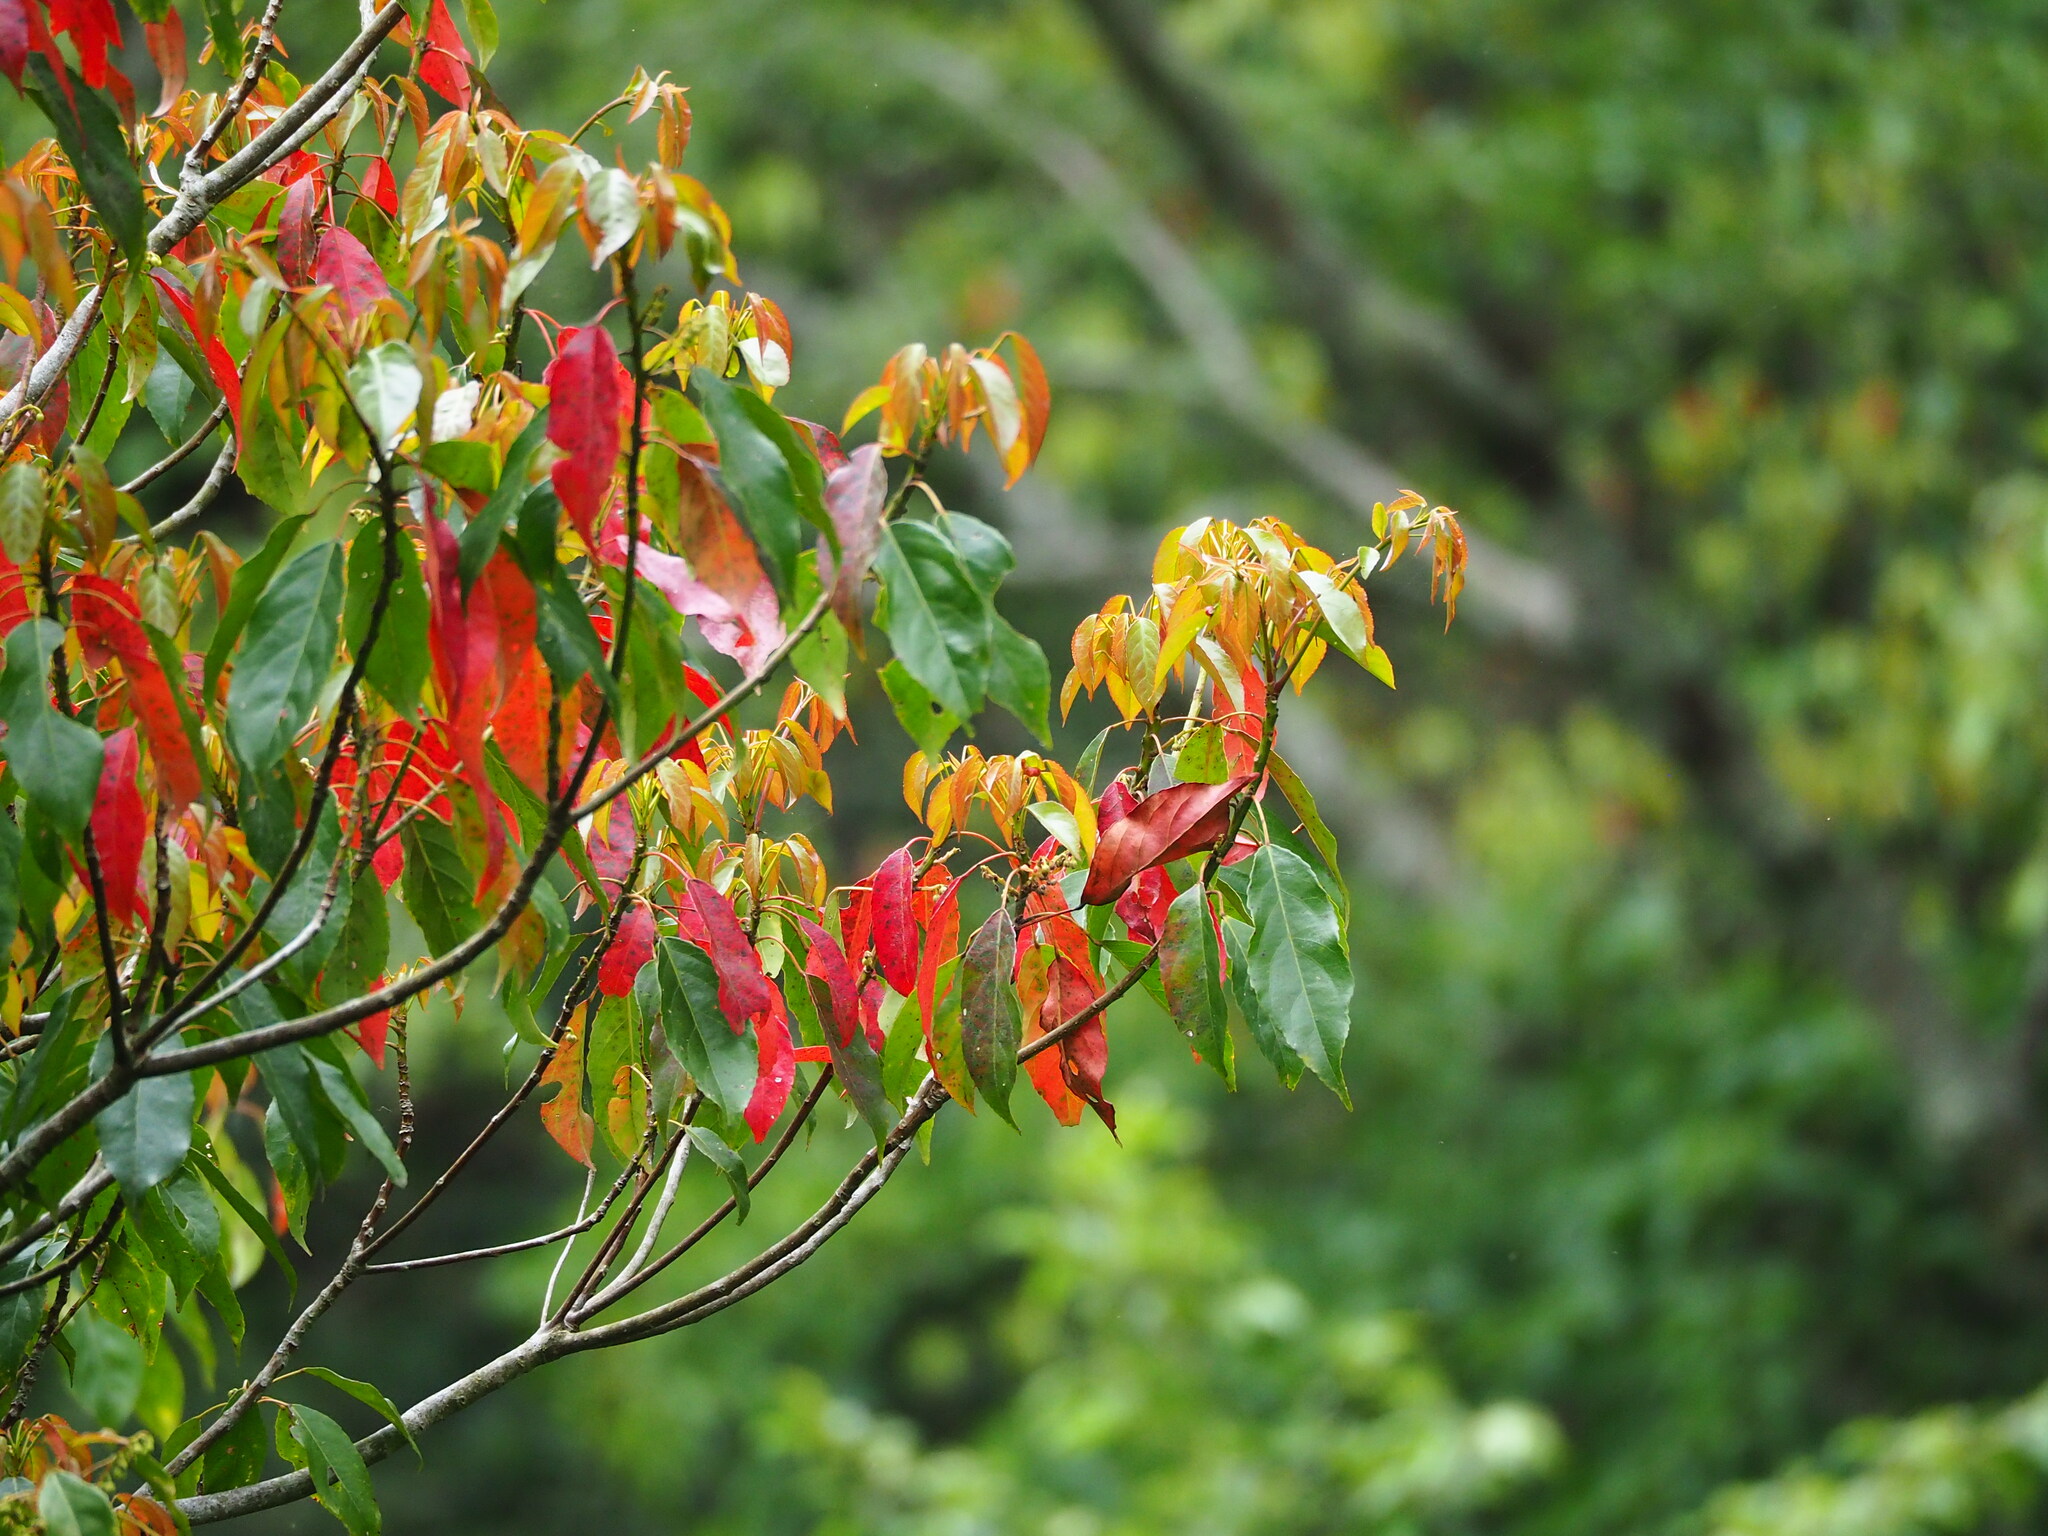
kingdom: Plantae
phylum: Tracheophyta
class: Magnoliopsida
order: Oxalidales
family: Elaeocarpaceae
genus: Elaeocarpus
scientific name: Elaeocarpus japonicus
